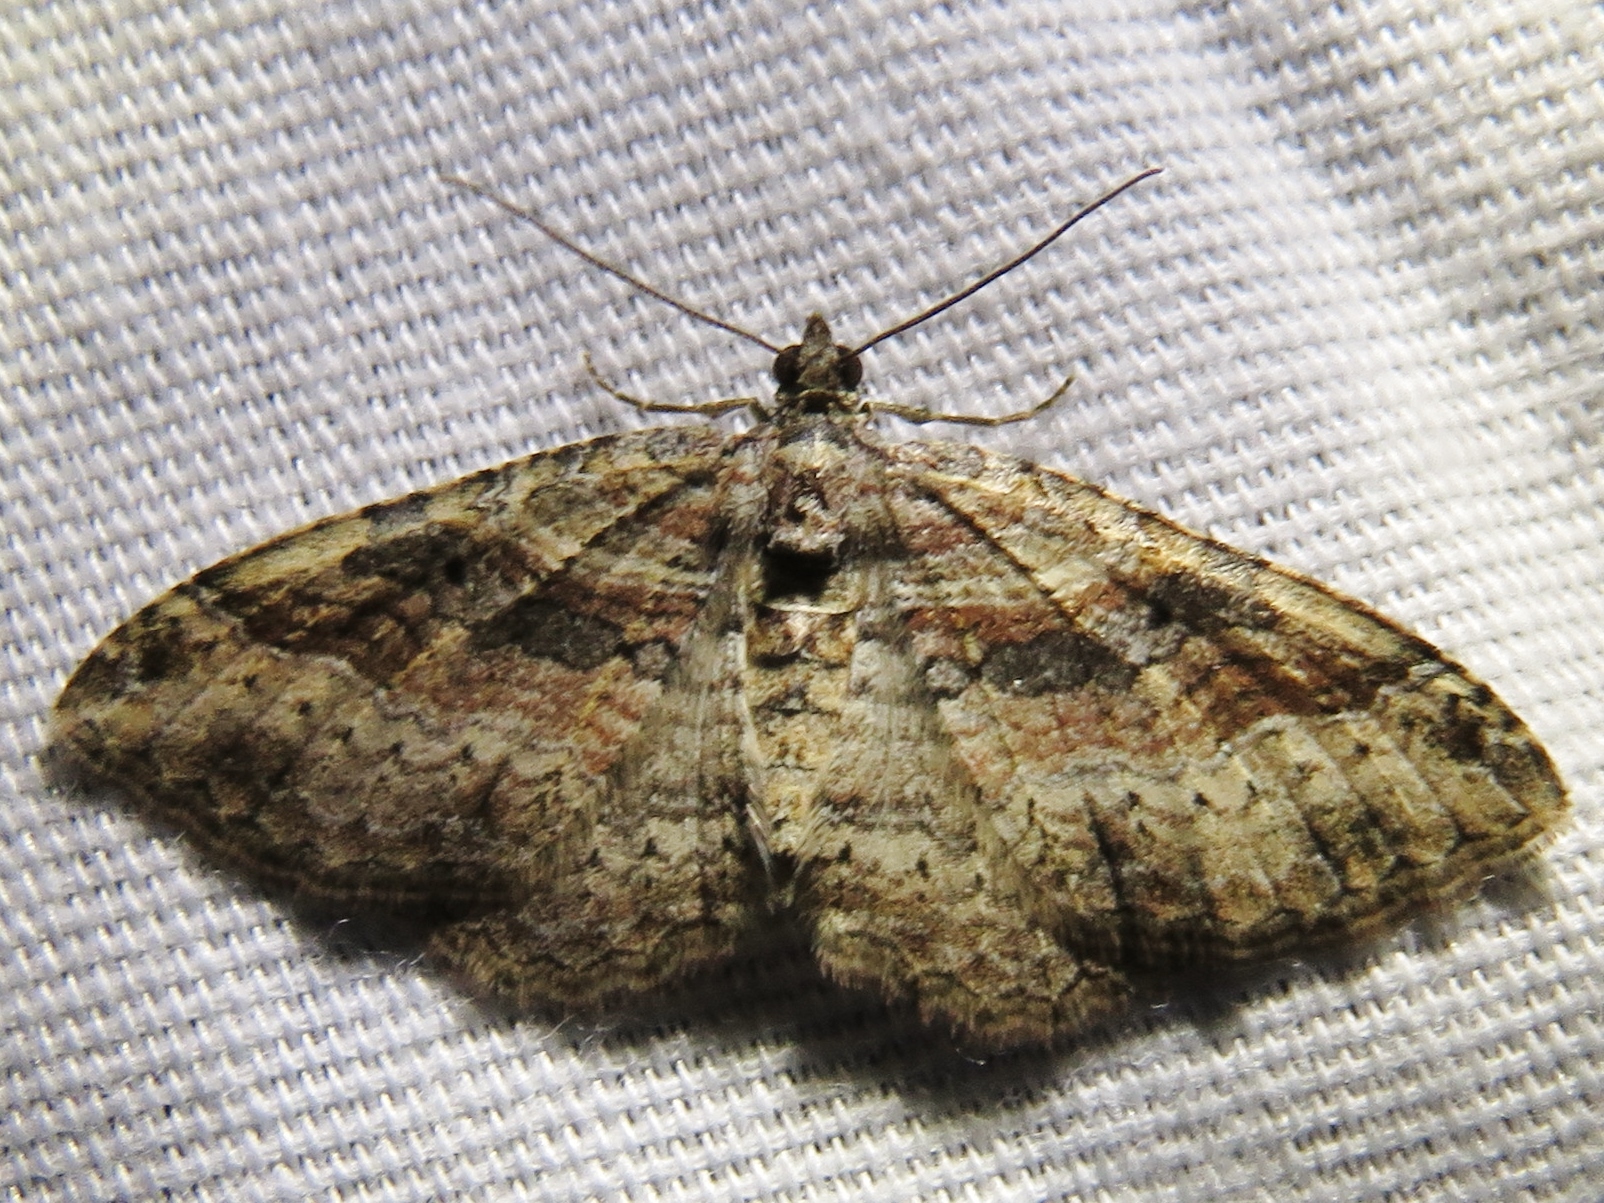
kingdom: Animalia
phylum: Arthropoda
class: Insecta
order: Lepidoptera
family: Geometridae
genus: Costaconvexa
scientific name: Costaconvexa centrostrigaria
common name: Bent-line carpet
